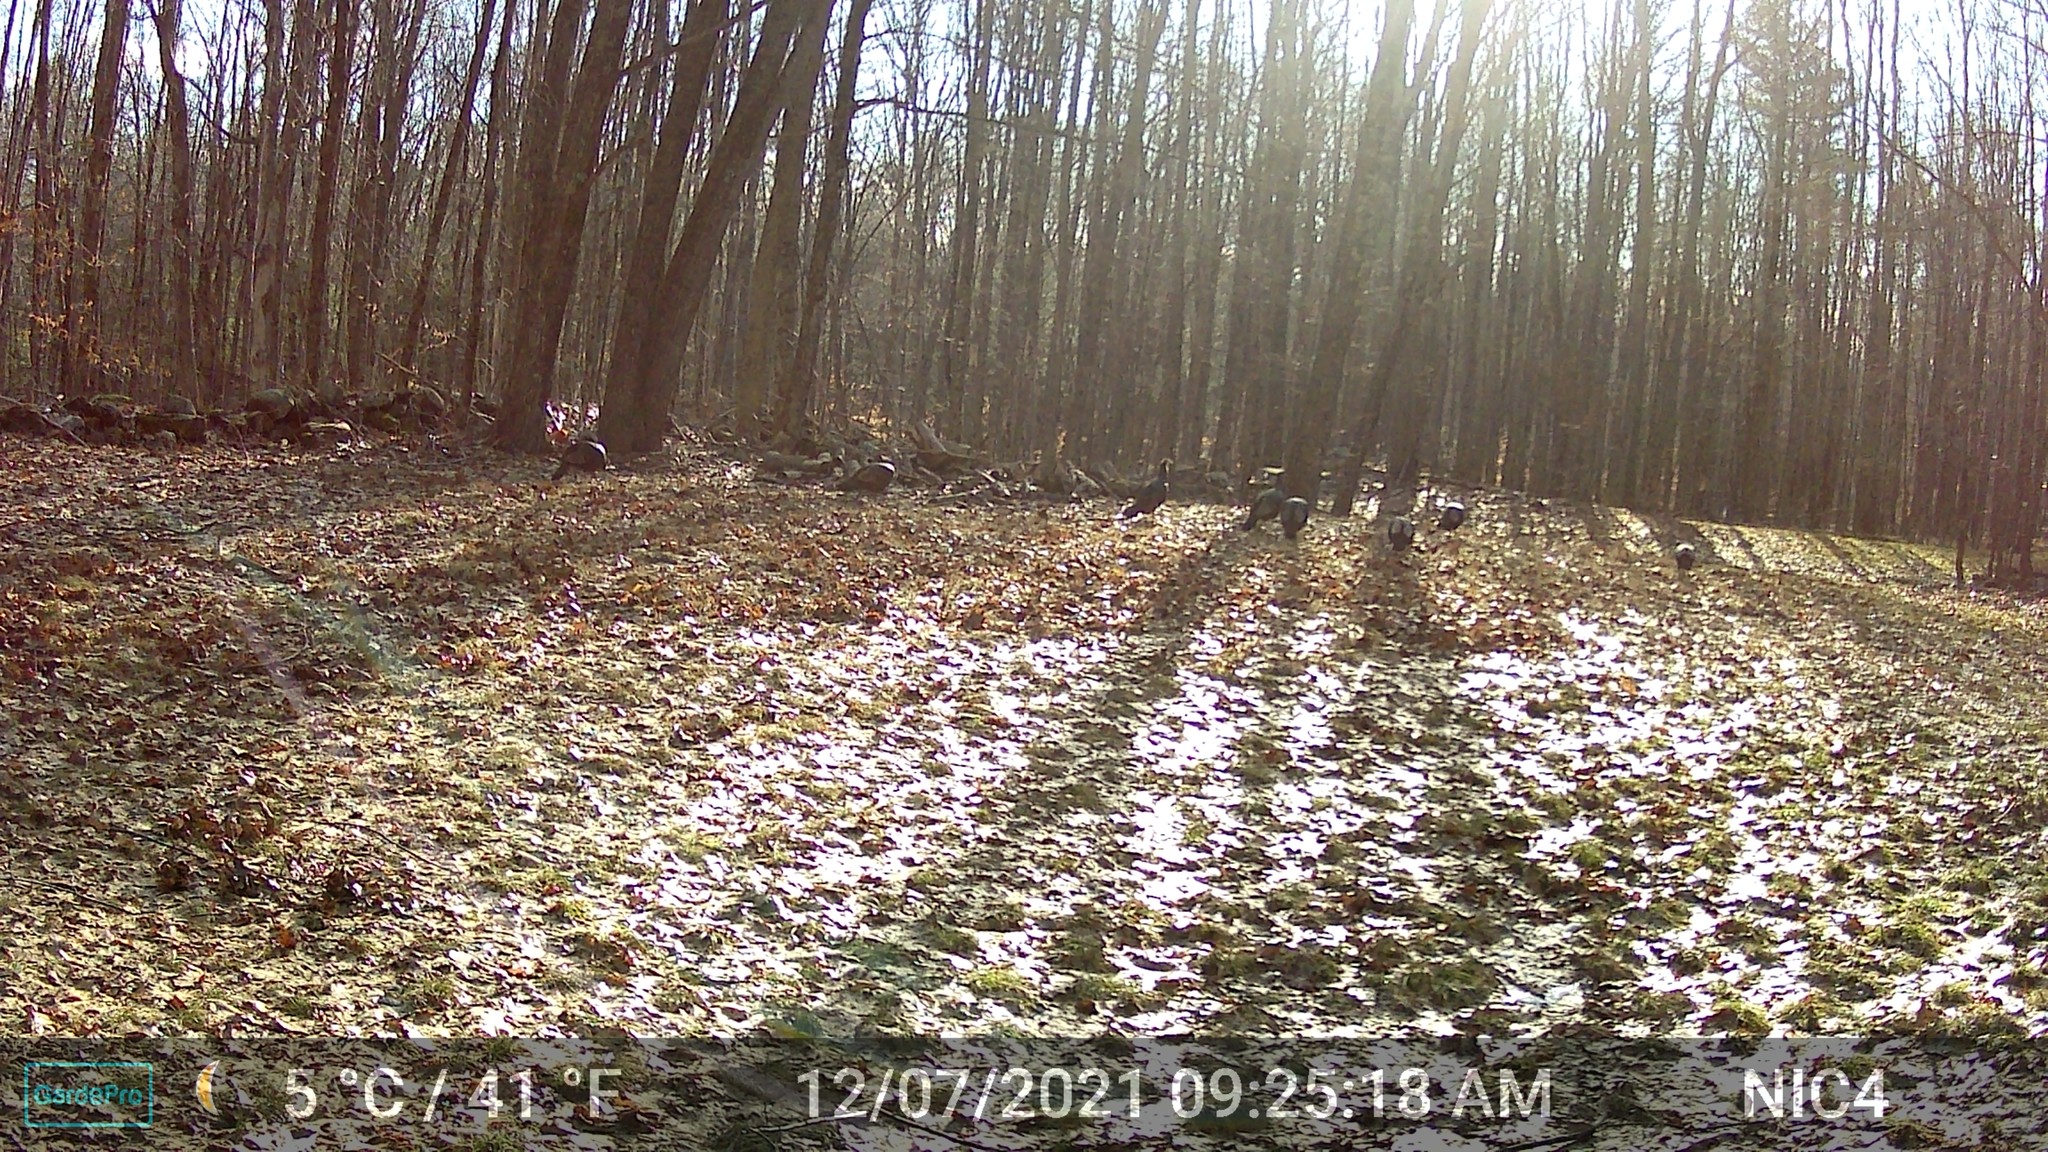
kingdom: Animalia
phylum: Chordata
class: Aves
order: Galliformes
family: Phasianidae
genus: Meleagris
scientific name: Meleagris gallopavo
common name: Wild turkey
